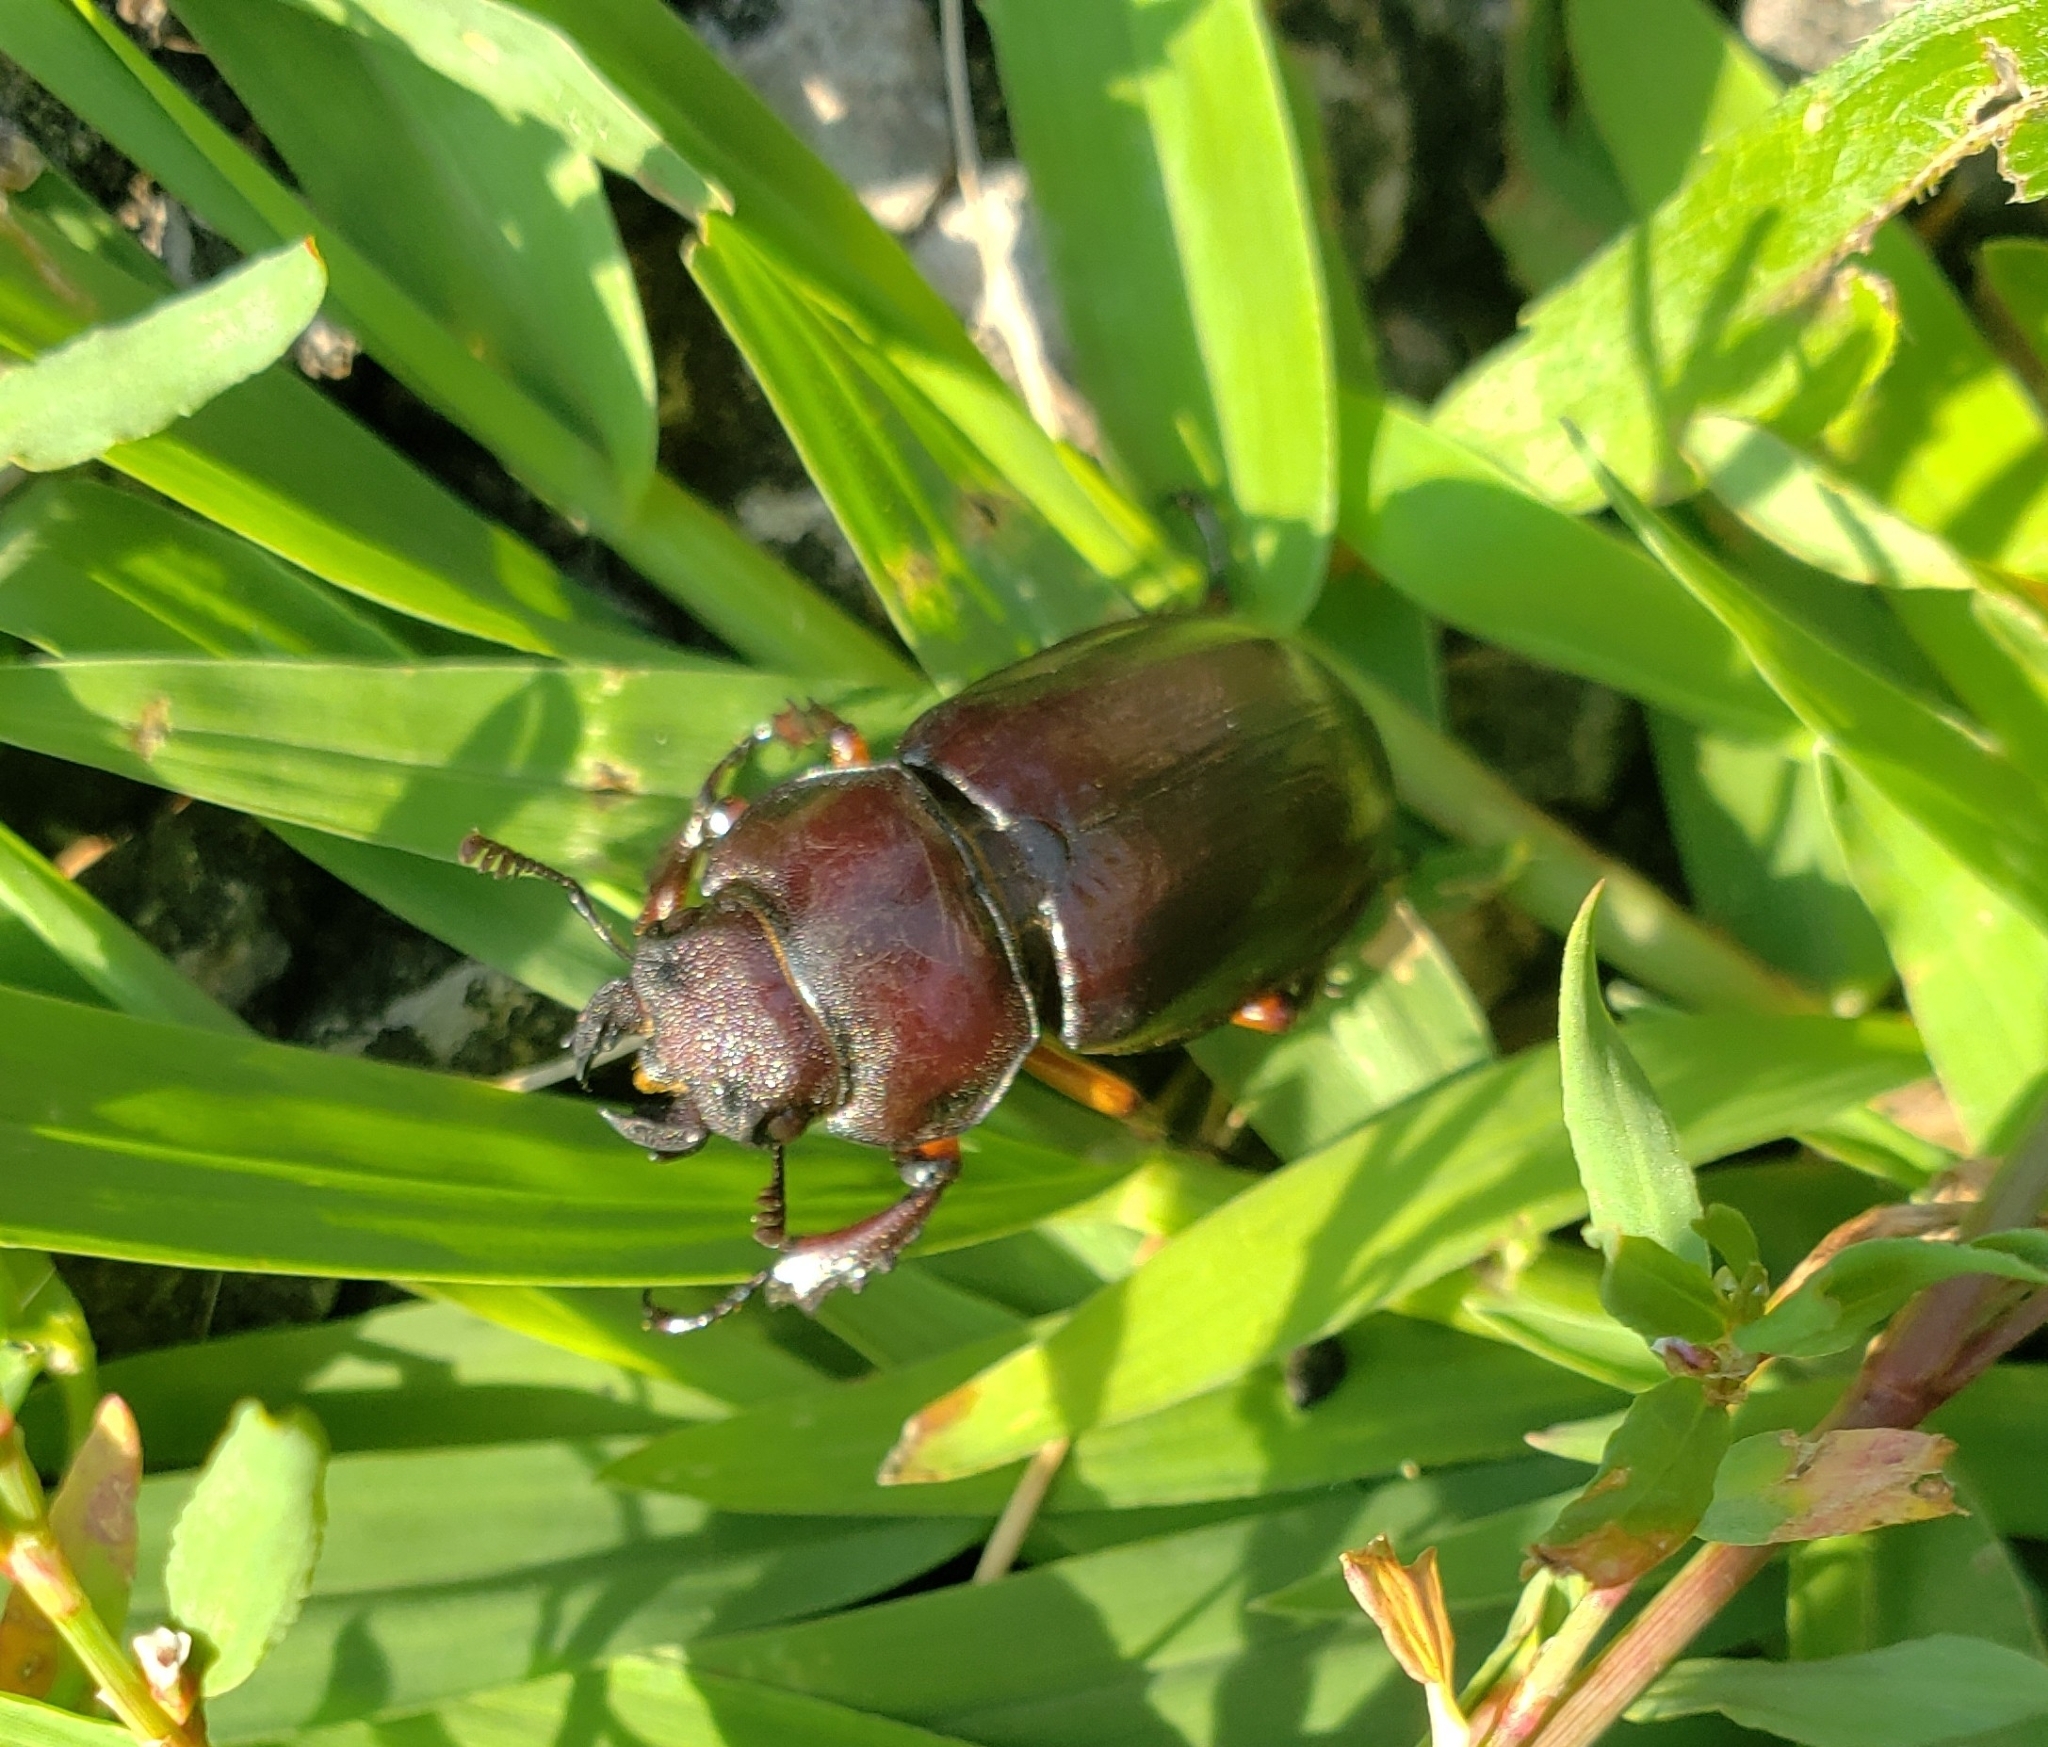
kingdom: Animalia
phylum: Arthropoda
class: Insecta
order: Coleoptera
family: Lucanidae
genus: Lucanus
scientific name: Lucanus capreolus
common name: Stag beetle
